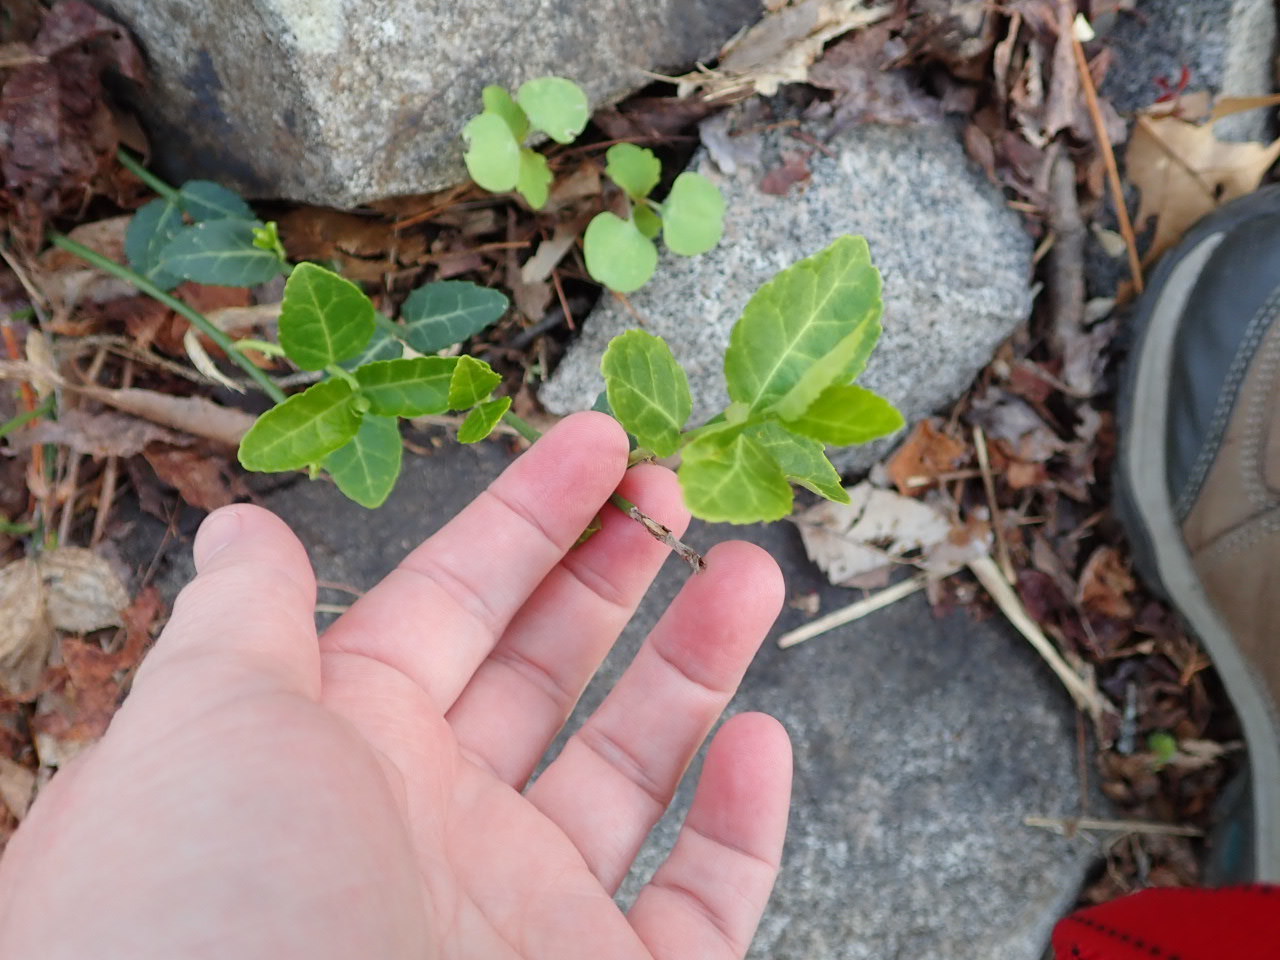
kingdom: Plantae
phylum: Tracheophyta
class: Magnoliopsida
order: Celastrales
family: Celastraceae
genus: Euonymus
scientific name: Euonymus fortunei
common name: Climbing euonymus
